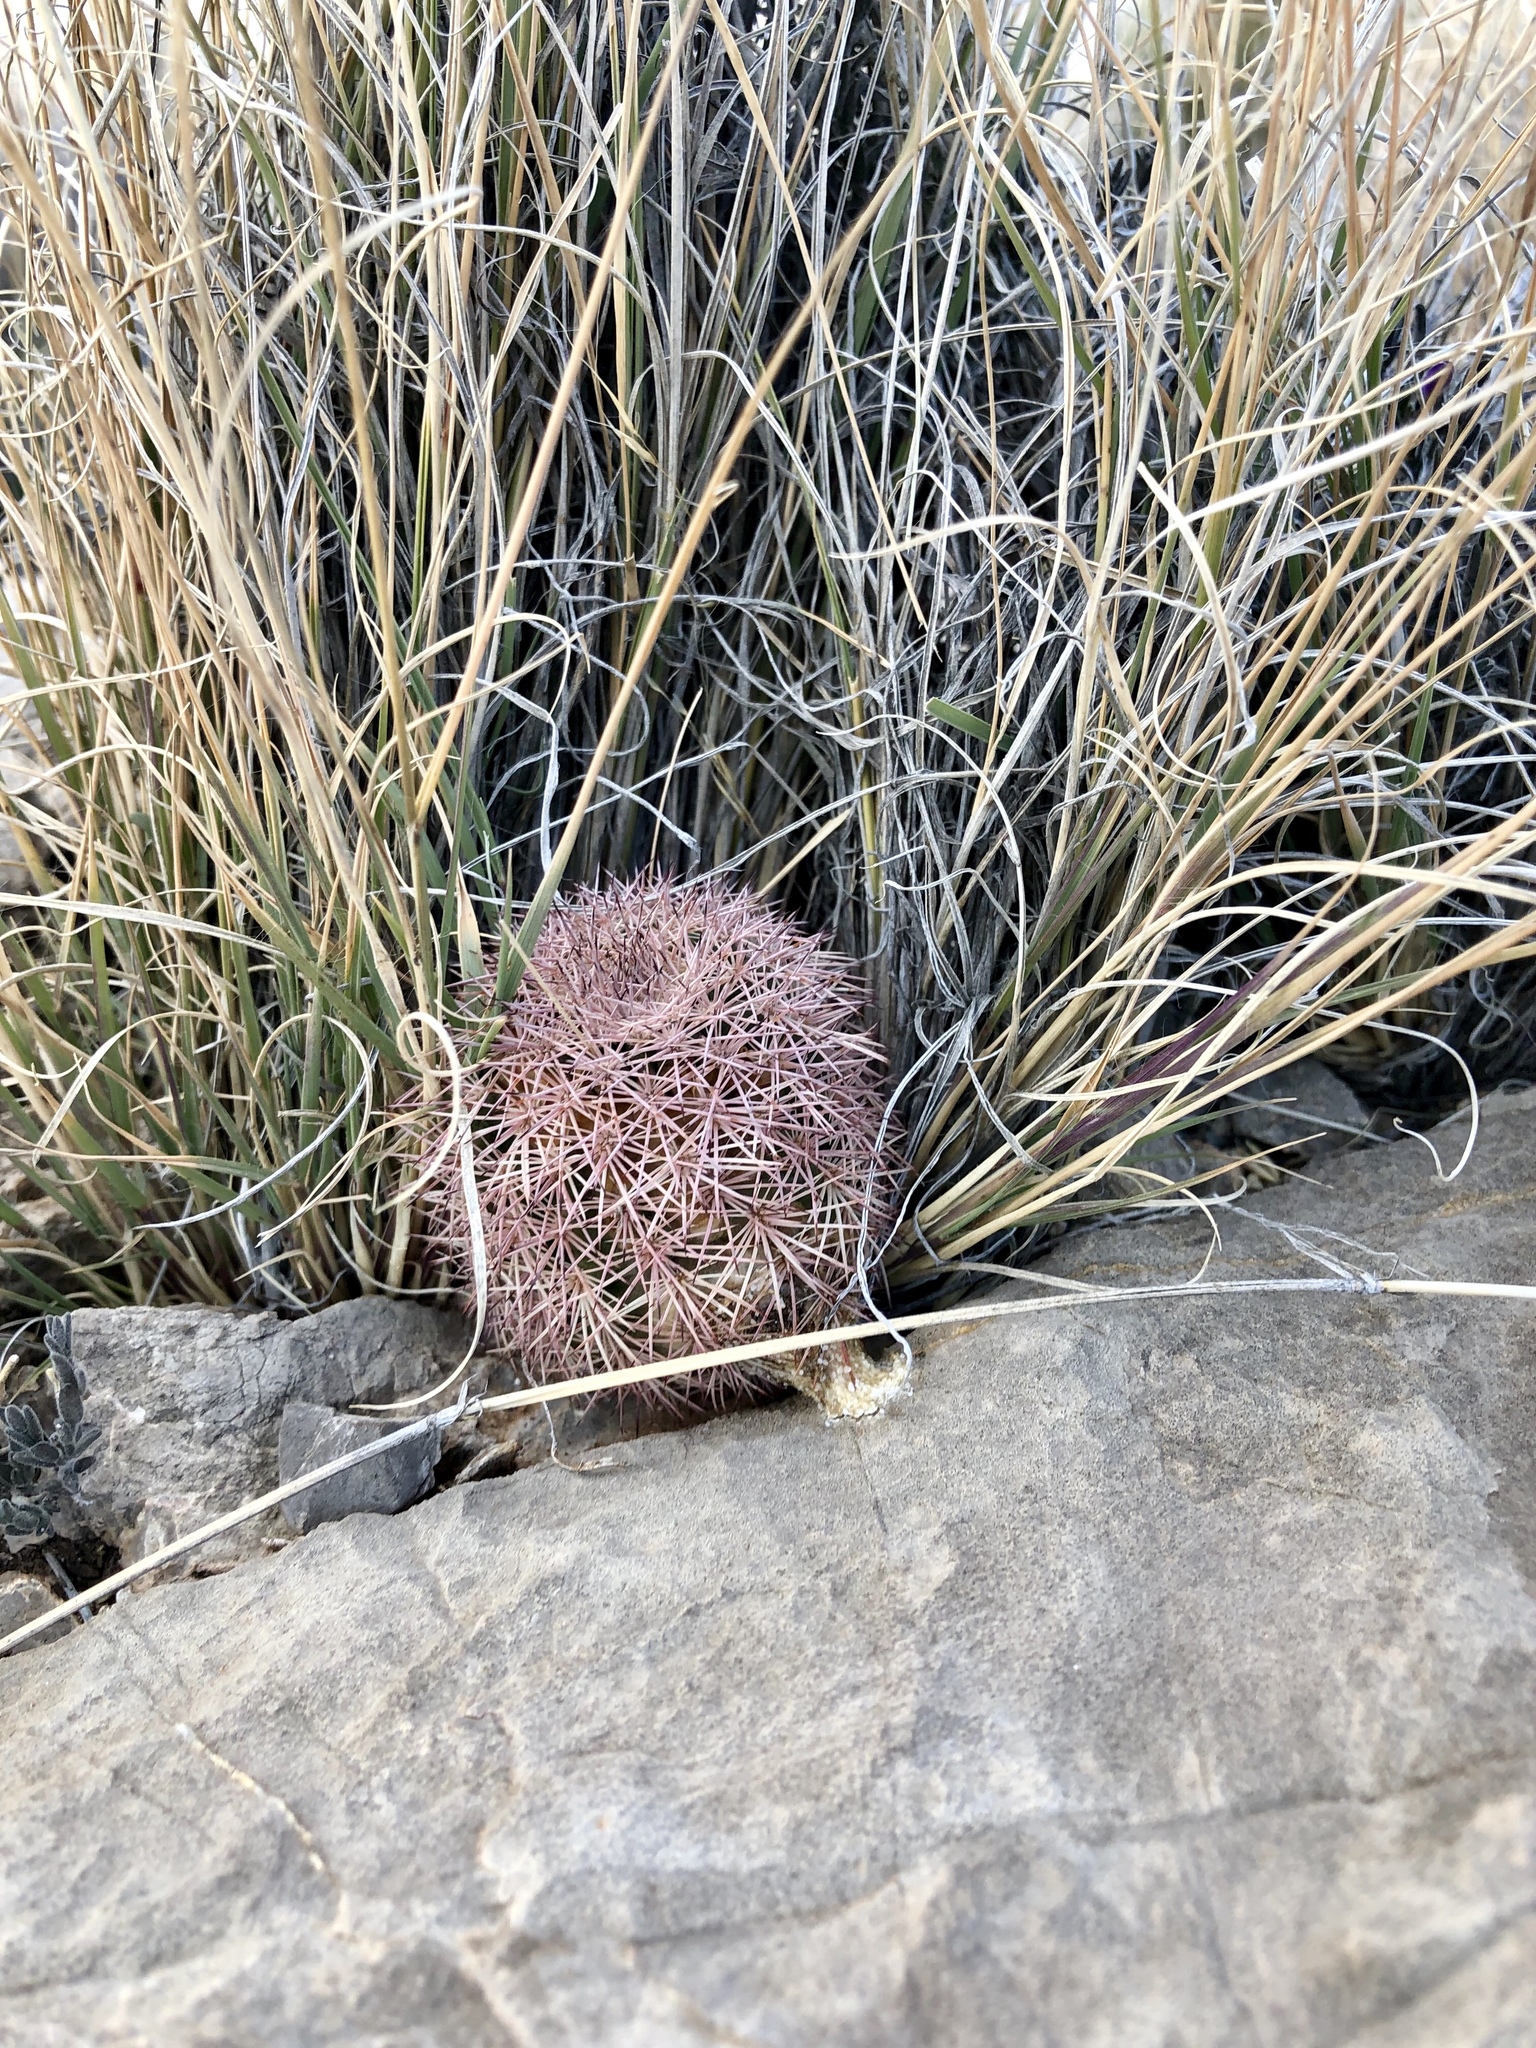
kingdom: Plantae
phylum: Tracheophyta
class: Magnoliopsida
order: Caryophyllales
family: Cactaceae
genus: Echinocereus
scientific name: Echinocereus dasyacanthus
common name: Spiny hedgehog cactus
